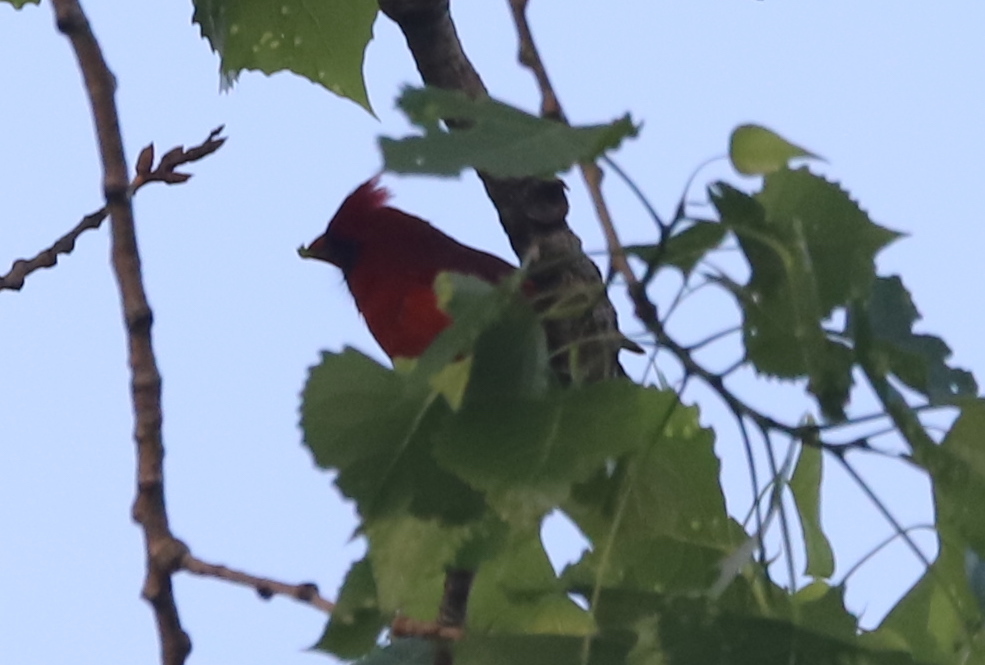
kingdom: Animalia
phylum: Chordata
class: Aves
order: Passeriformes
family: Cardinalidae
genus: Cardinalis
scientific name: Cardinalis cardinalis
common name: Northern cardinal
